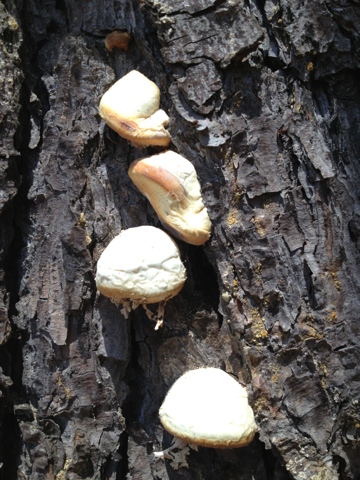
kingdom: Fungi
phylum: Basidiomycota
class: Agaricomycetes
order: Polyporales
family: Polyporaceae
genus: Cryptoporus
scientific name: Cryptoporus volvatus
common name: Veiled polypore
